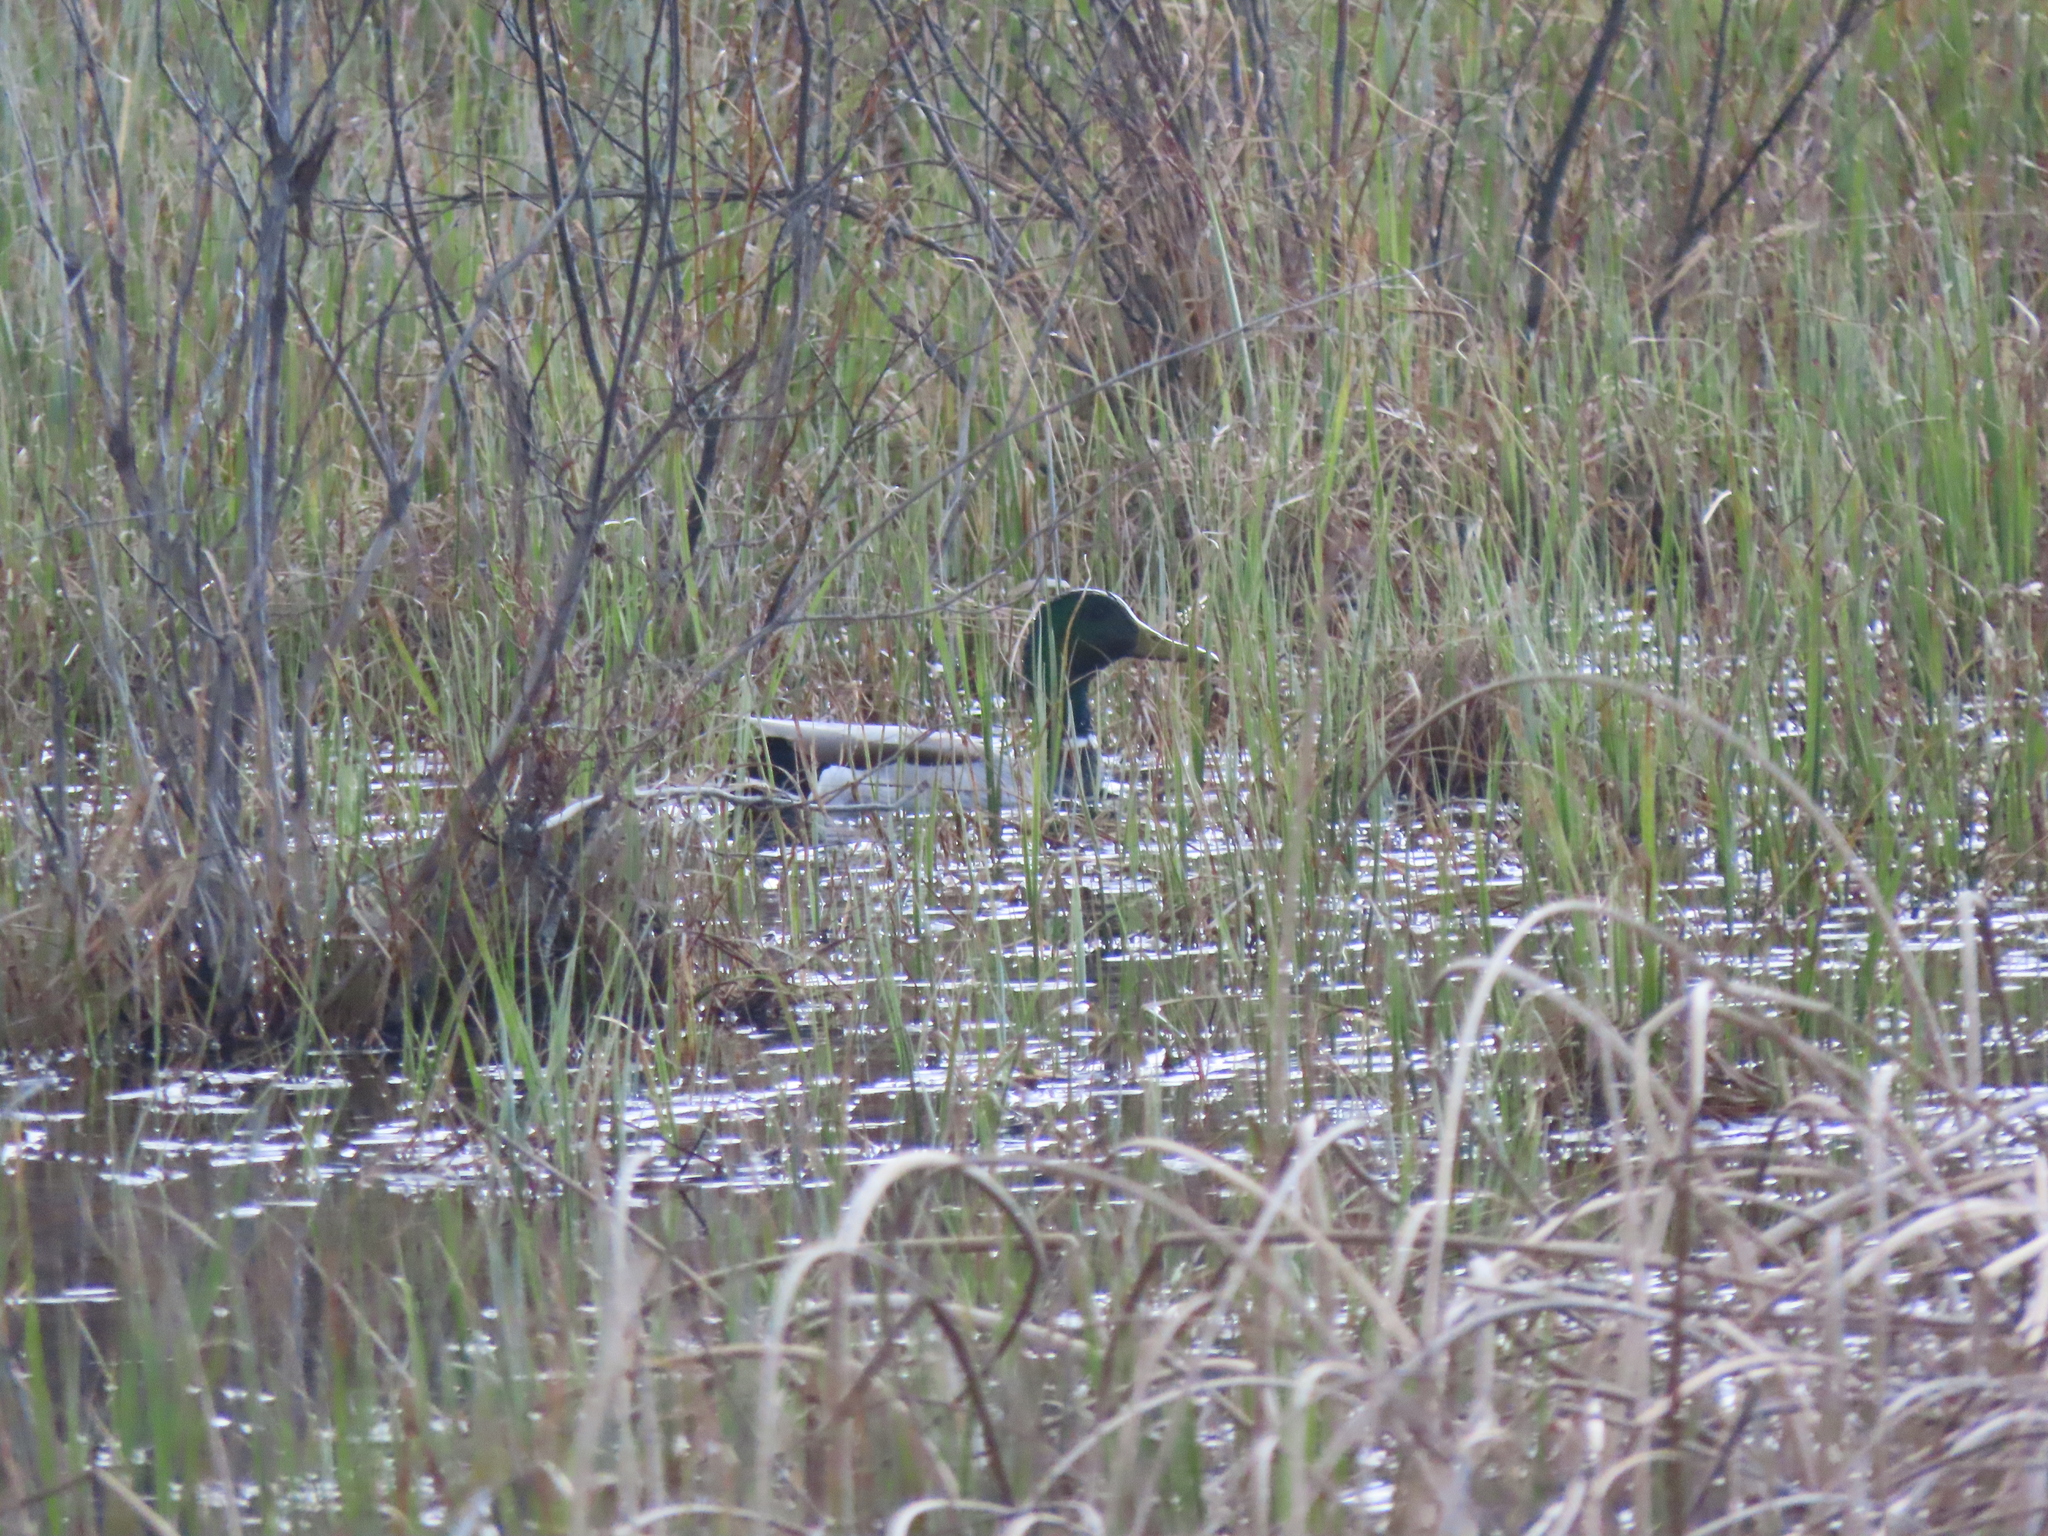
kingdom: Animalia
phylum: Chordata
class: Aves
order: Anseriformes
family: Anatidae
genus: Anas
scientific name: Anas platyrhynchos
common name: Mallard
